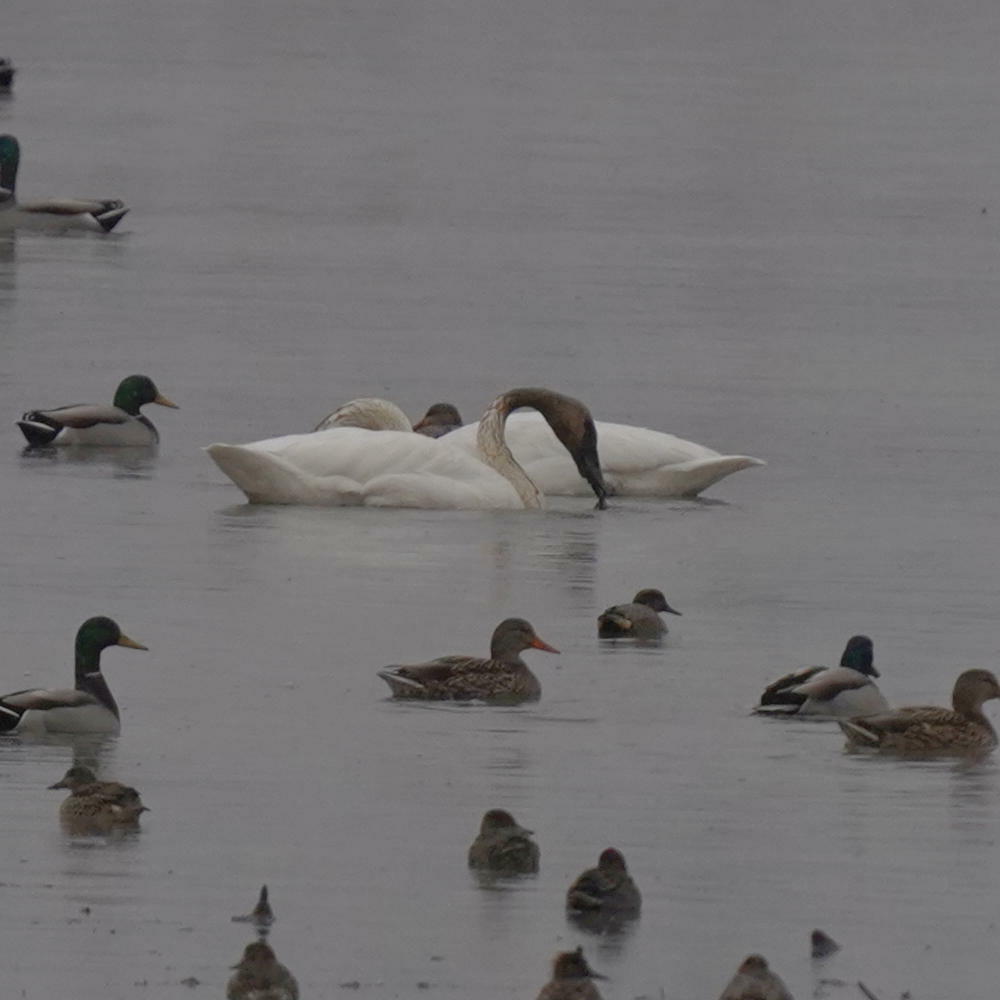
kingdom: Animalia
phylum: Chordata
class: Aves
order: Anseriformes
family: Anatidae
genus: Cygnus
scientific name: Cygnus buccinator
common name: Trumpeter swan
